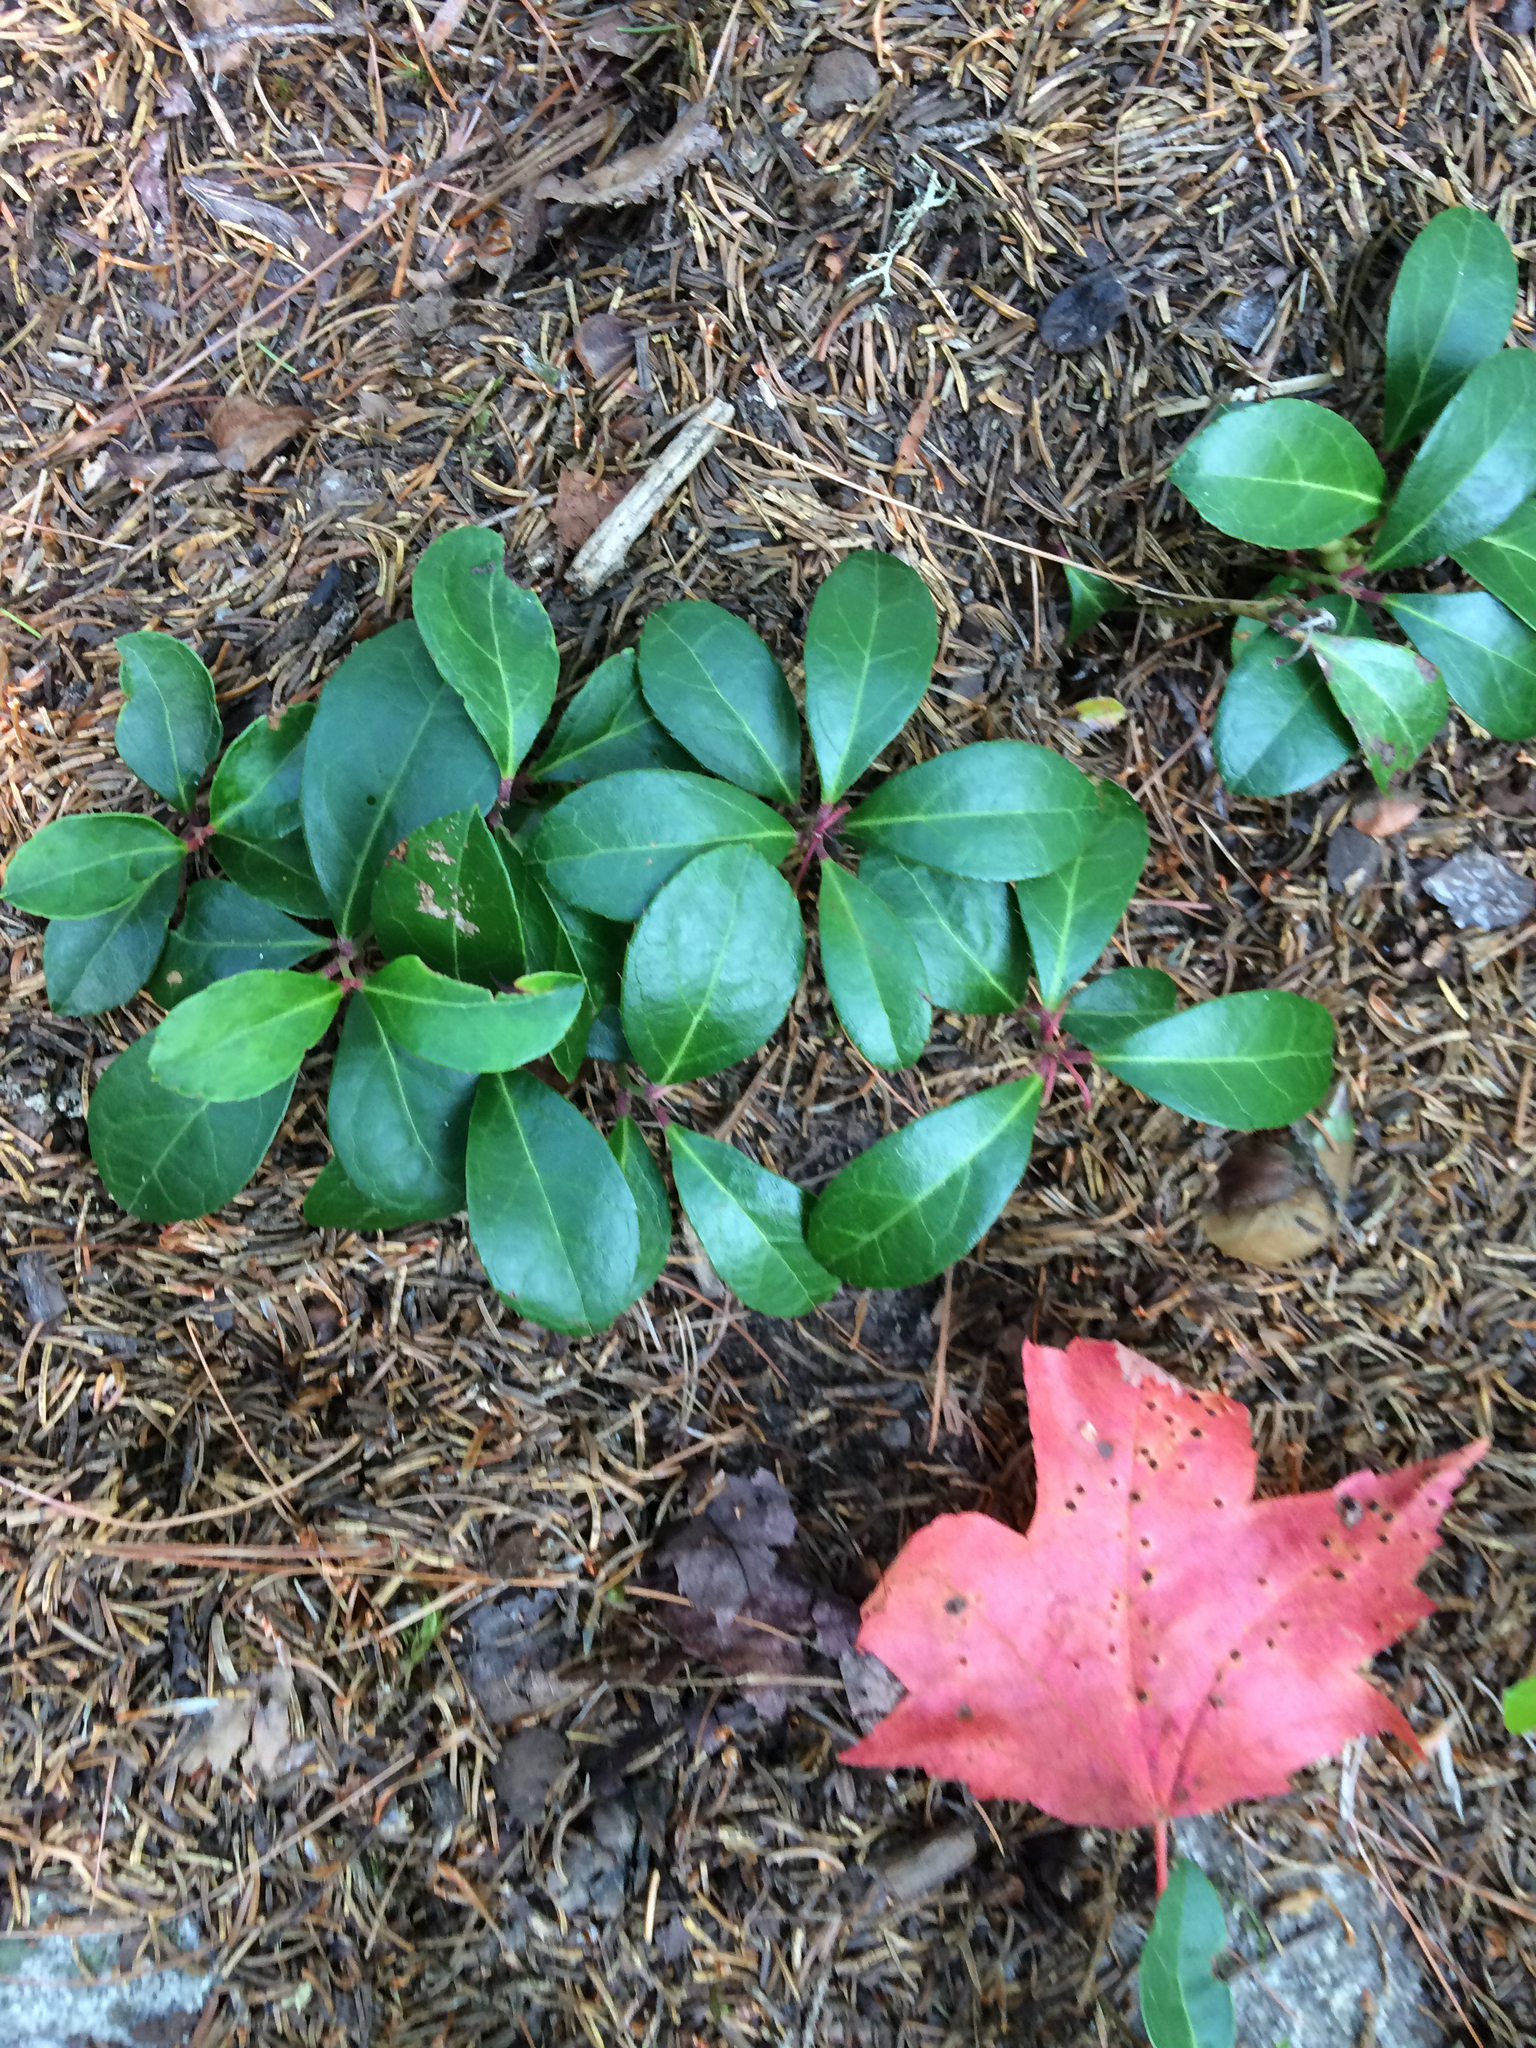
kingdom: Plantae
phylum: Tracheophyta
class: Magnoliopsida
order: Ericales
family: Ericaceae
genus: Gaultheria
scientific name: Gaultheria procumbens
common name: Checkerberry
